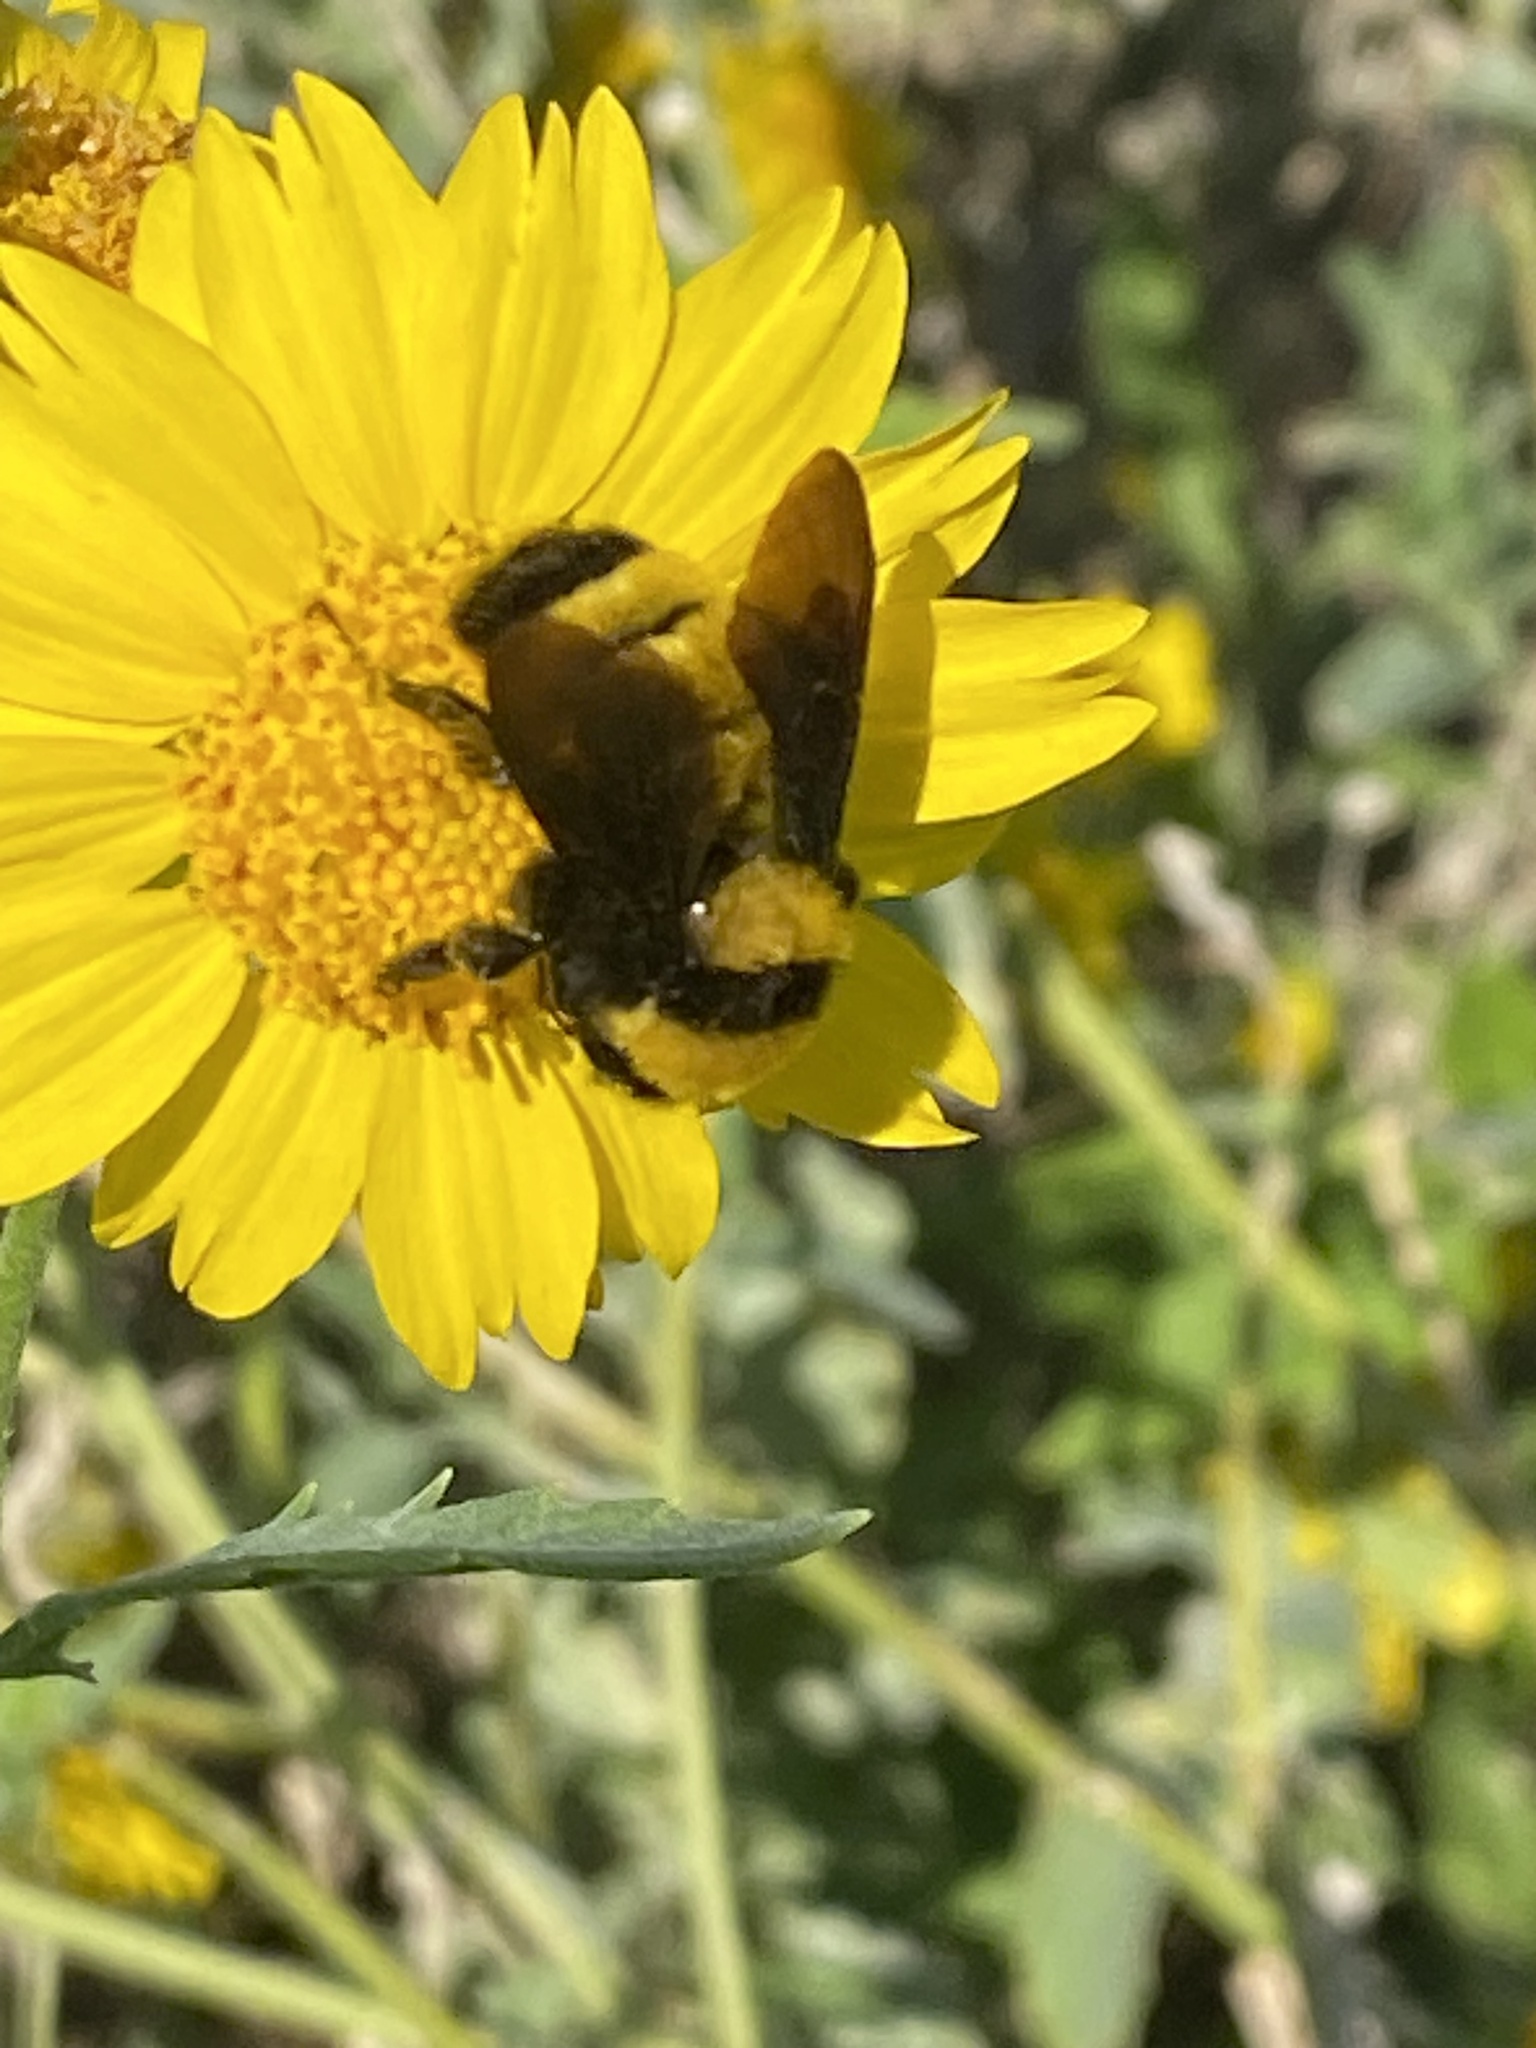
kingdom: Animalia
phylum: Arthropoda
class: Insecta
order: Hymenoptera
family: Apidae
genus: Bombus
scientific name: Bombus sonorus
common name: Sonoran bumble bee
